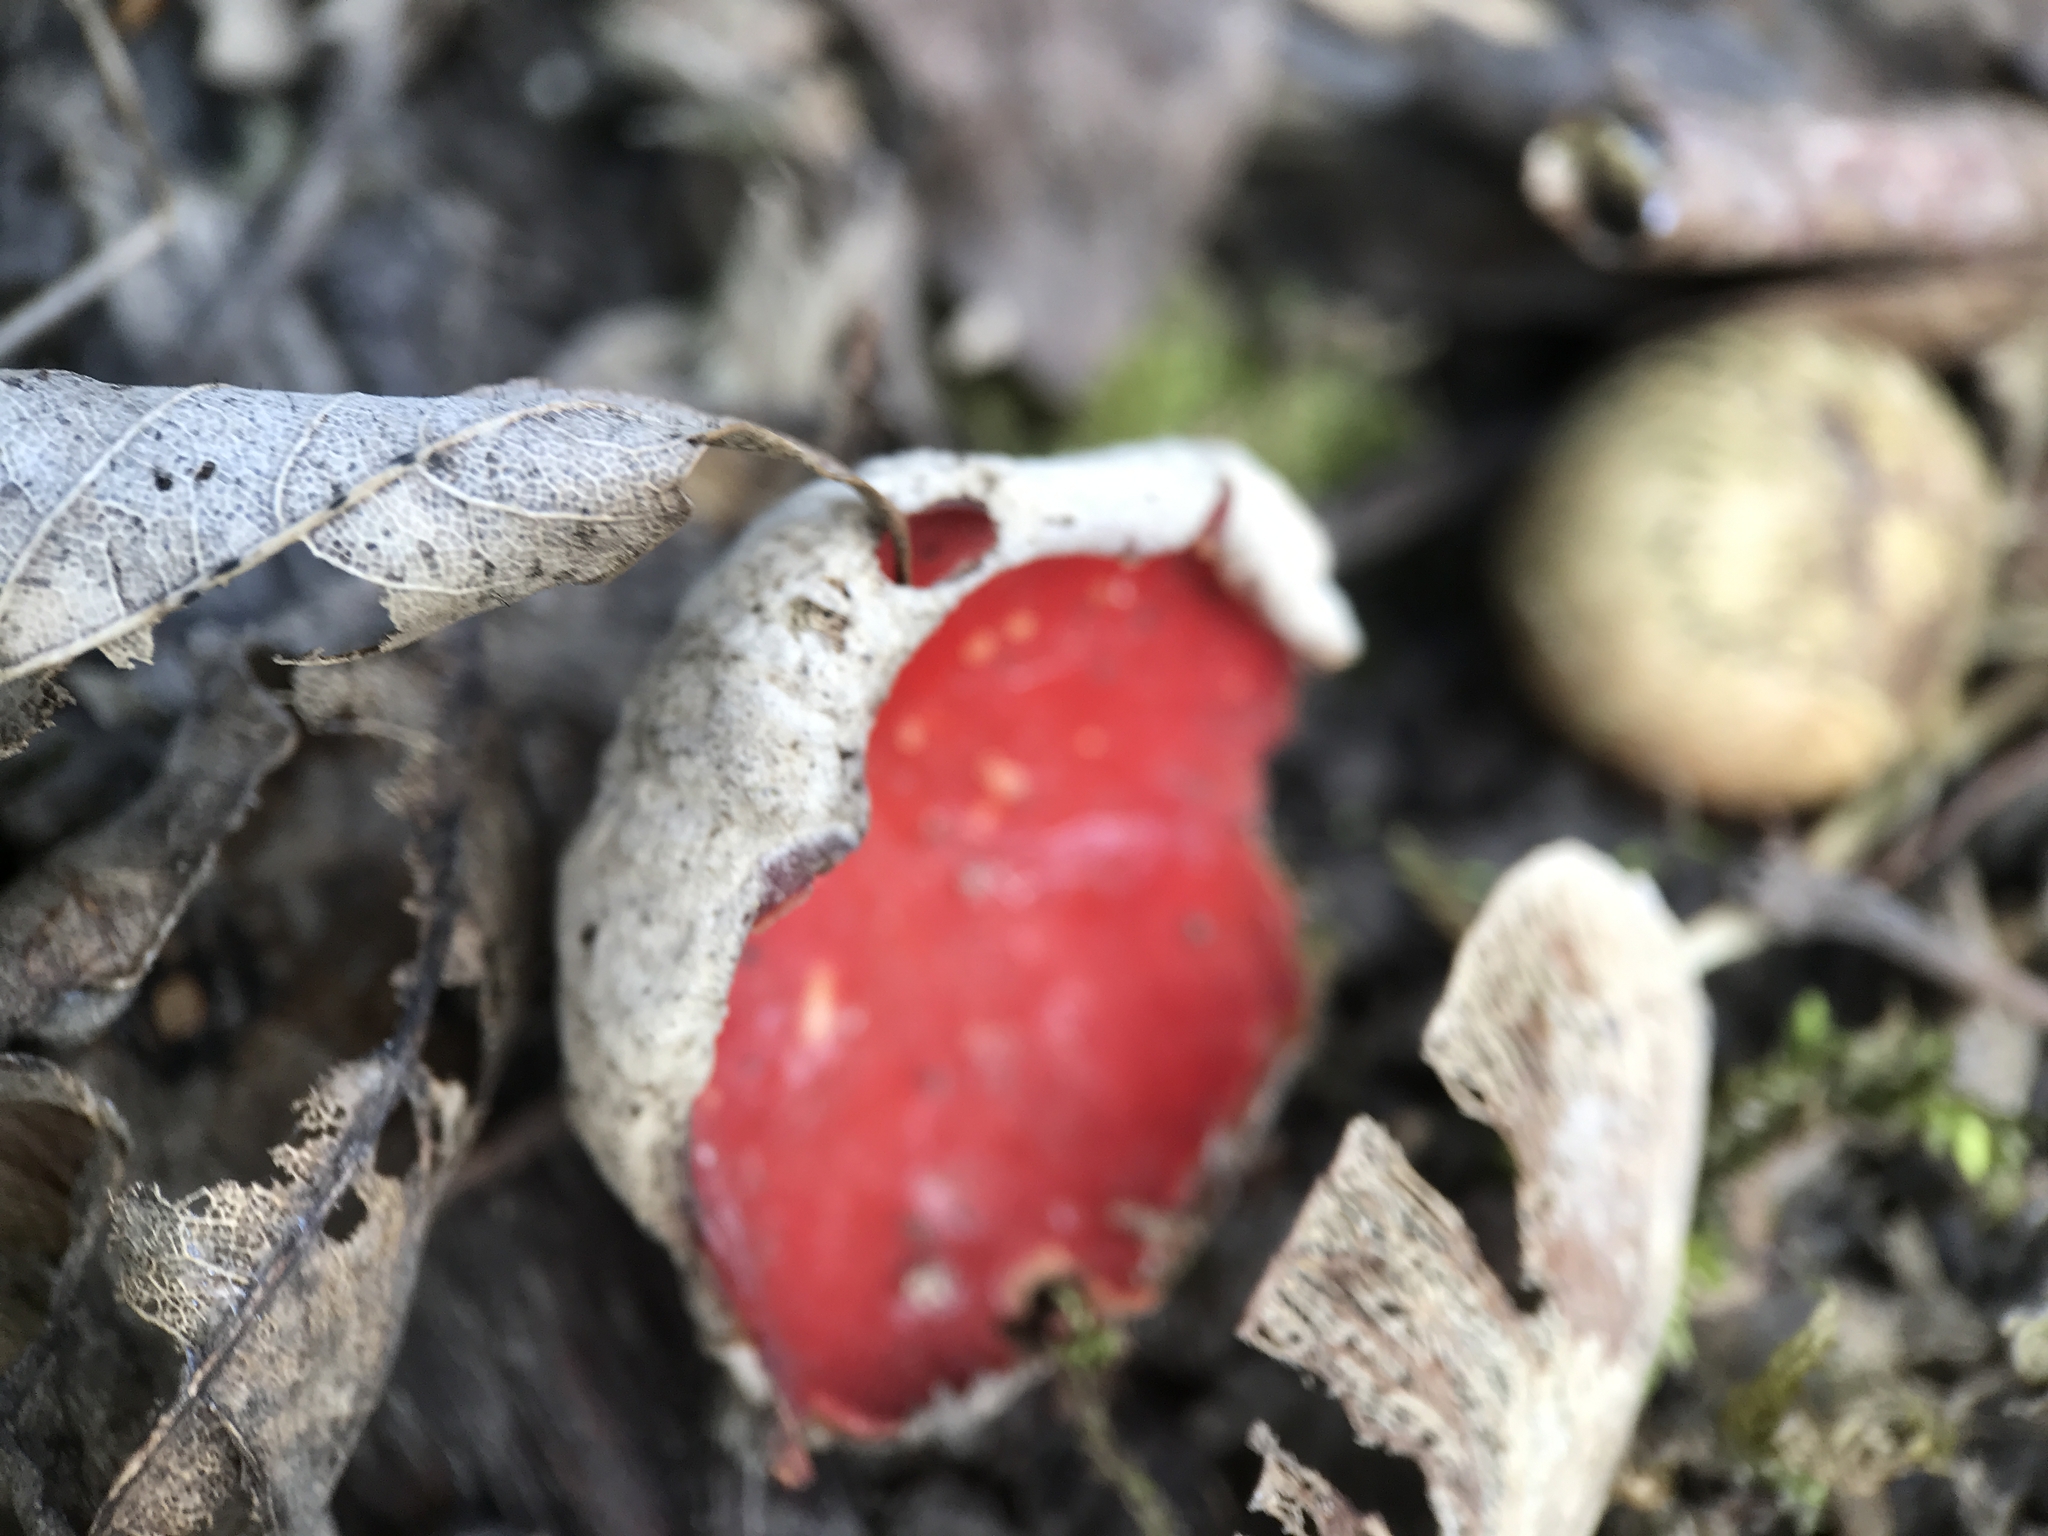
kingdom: Fungi
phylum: Ascomycota
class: Pezizomycetes
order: Pezizales
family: Sarcoscyphaceae
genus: Sarcoscypha
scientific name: Sarcoscypha
